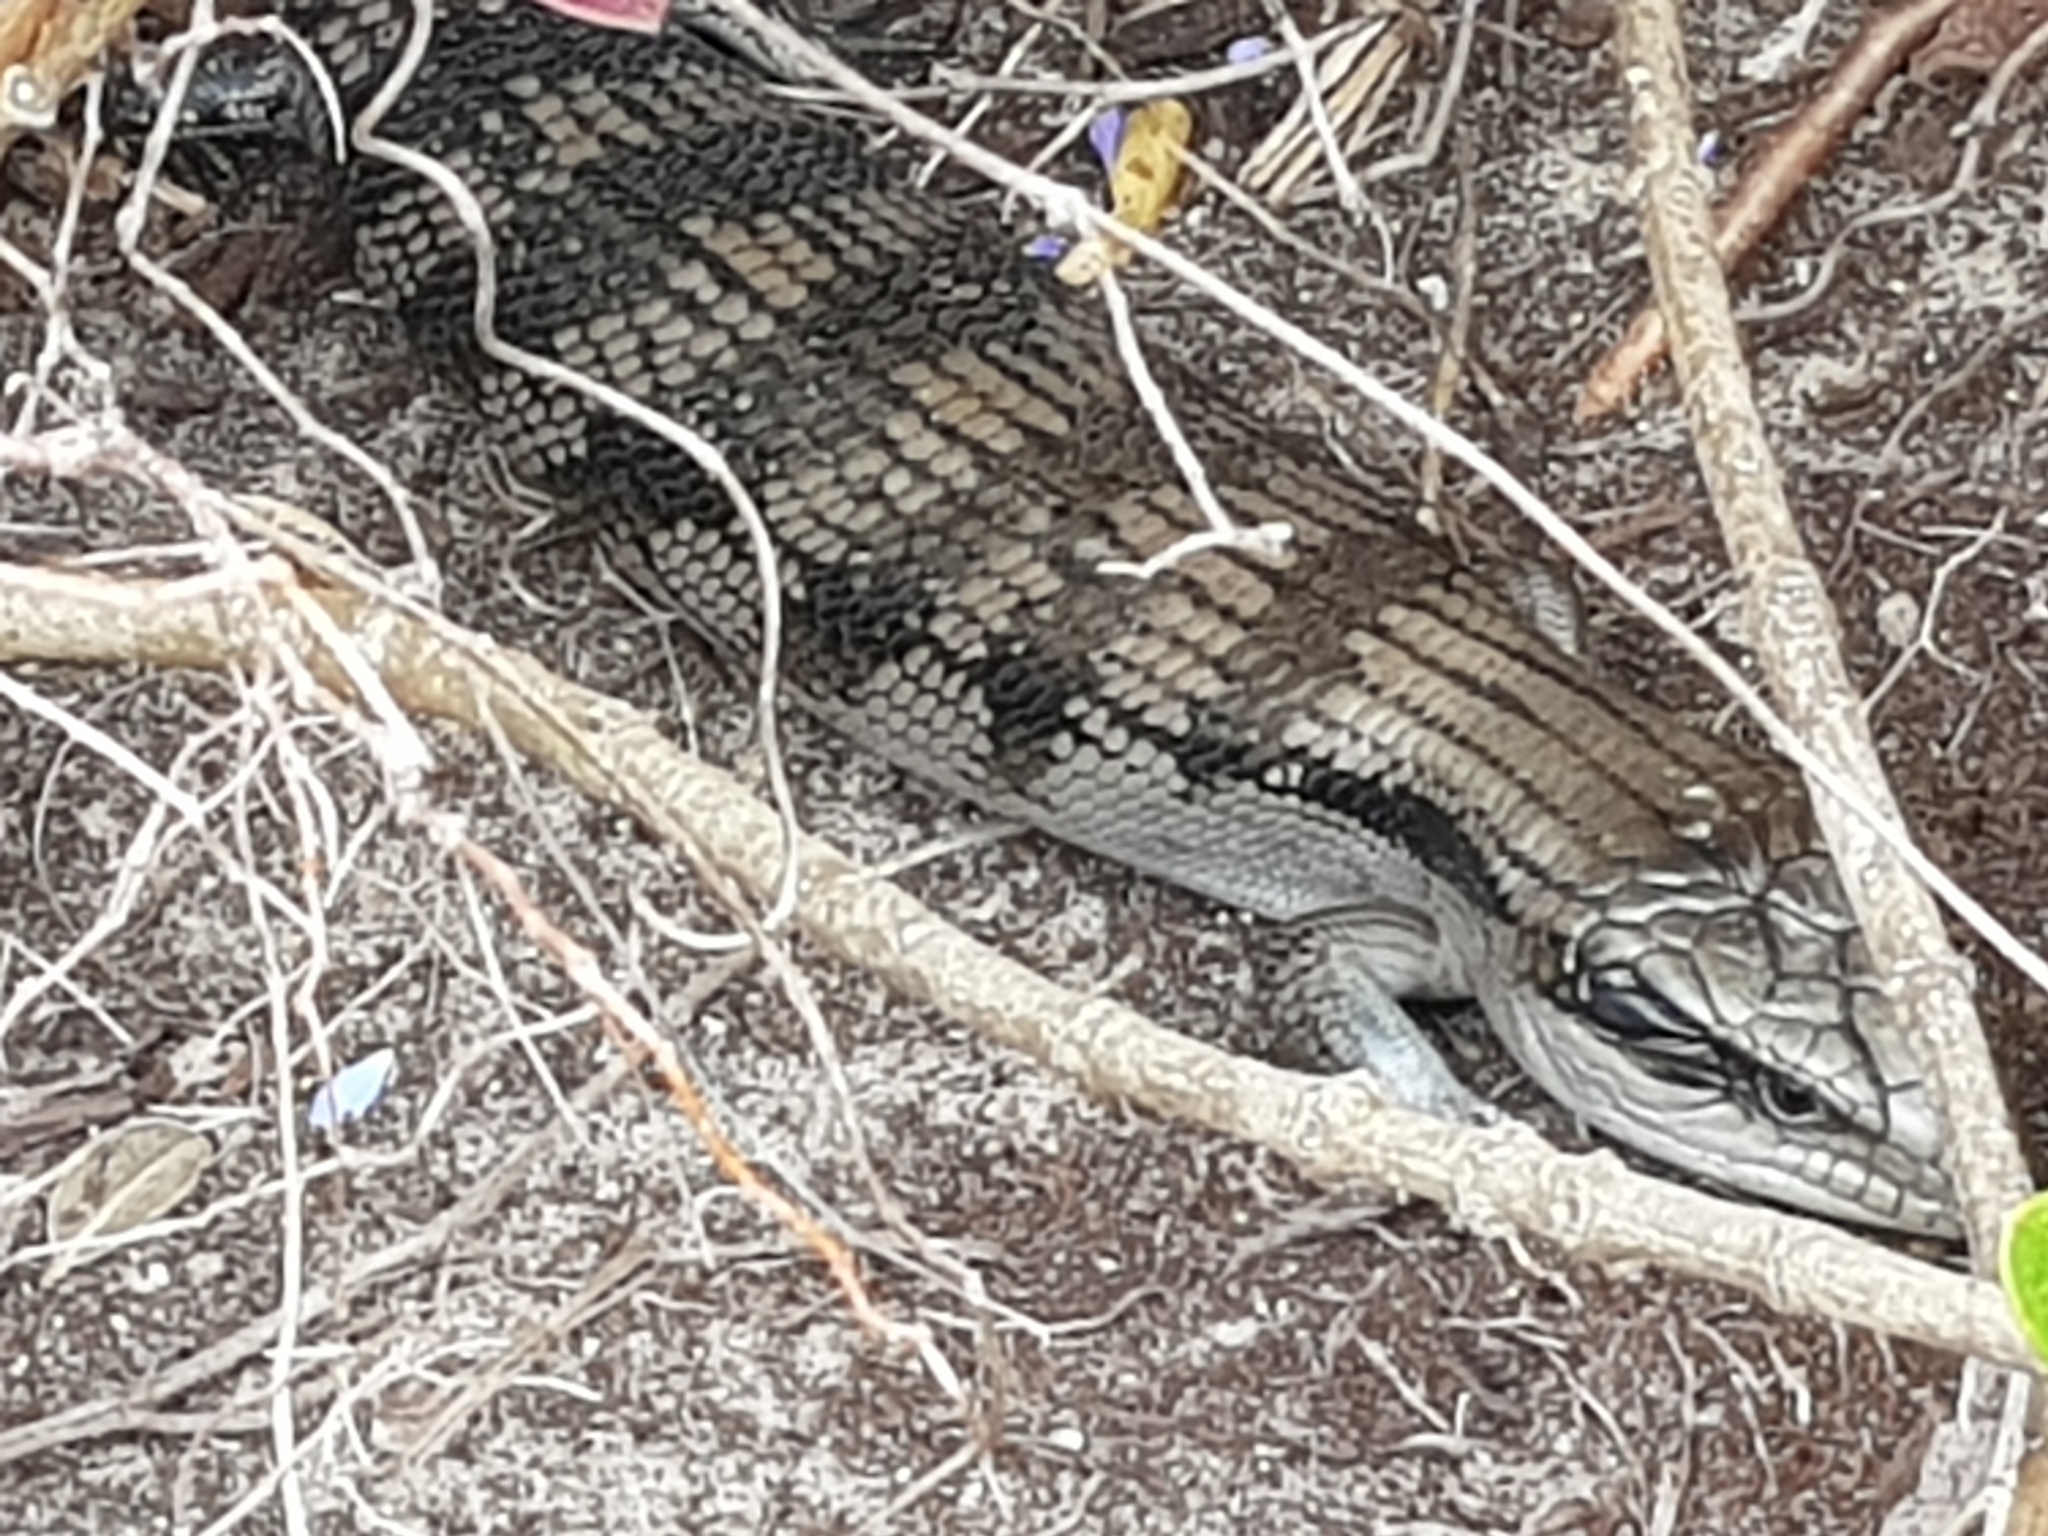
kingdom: Animalia
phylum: Chordata
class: Squamata
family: Scincidae
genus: Tiliqua
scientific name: Tiliqua scincoides
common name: Common bluetongue
